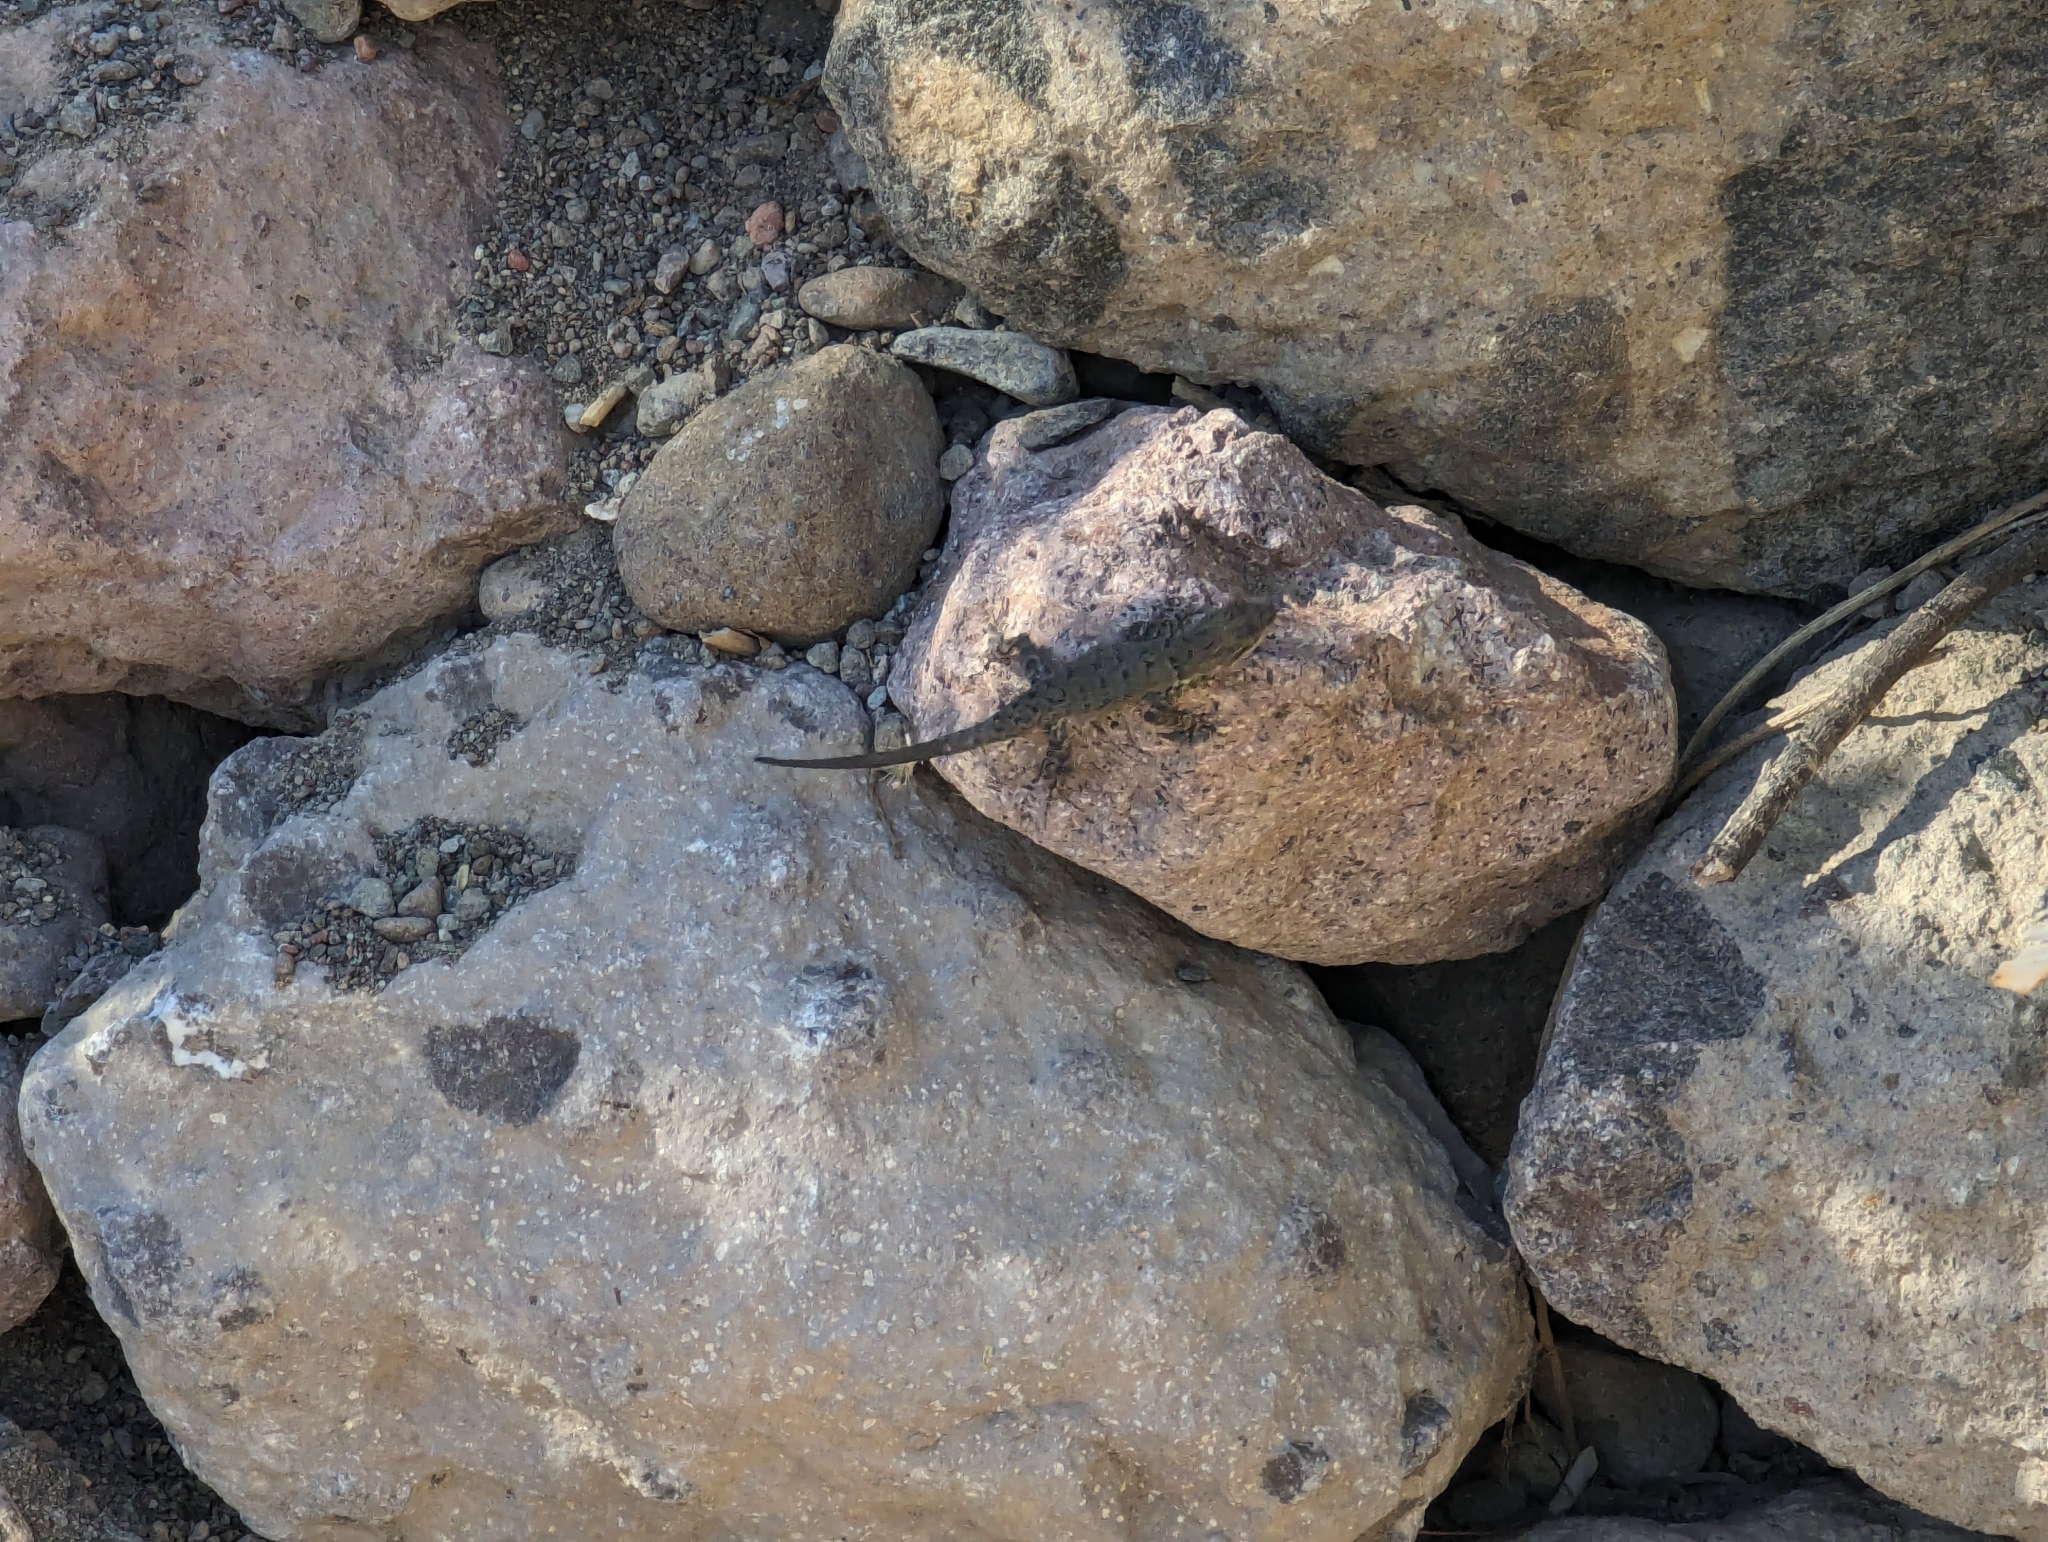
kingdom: Animalia
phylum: Chordata
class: Squamata
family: Phrynosomatidae
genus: Urosaurus
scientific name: Urosaurus nigricauda
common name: Baja california brush lizard
